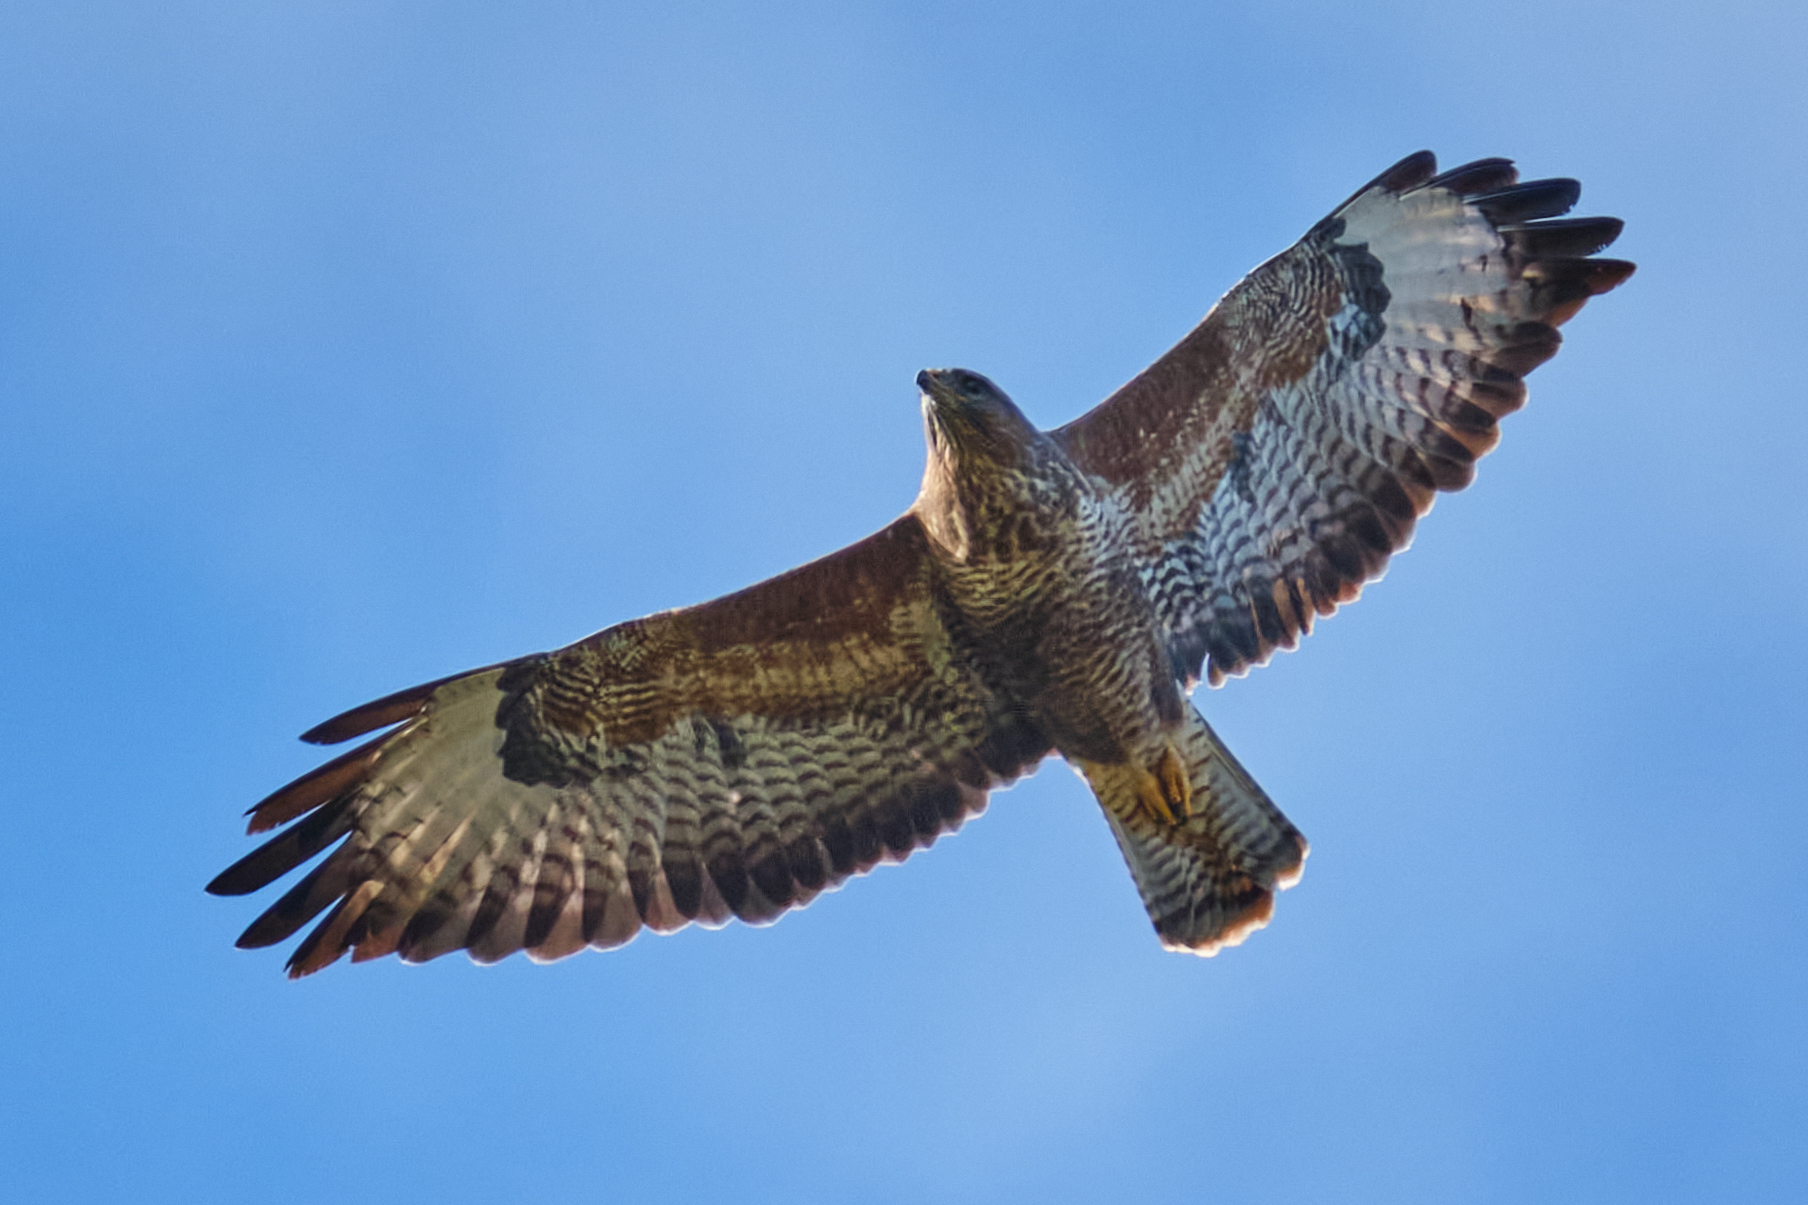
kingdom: Animalia
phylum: Chordata
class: Aves
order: Accipitriformes
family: Accipitridae
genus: Buteo
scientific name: Buteo buteo
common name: Common buzzard
